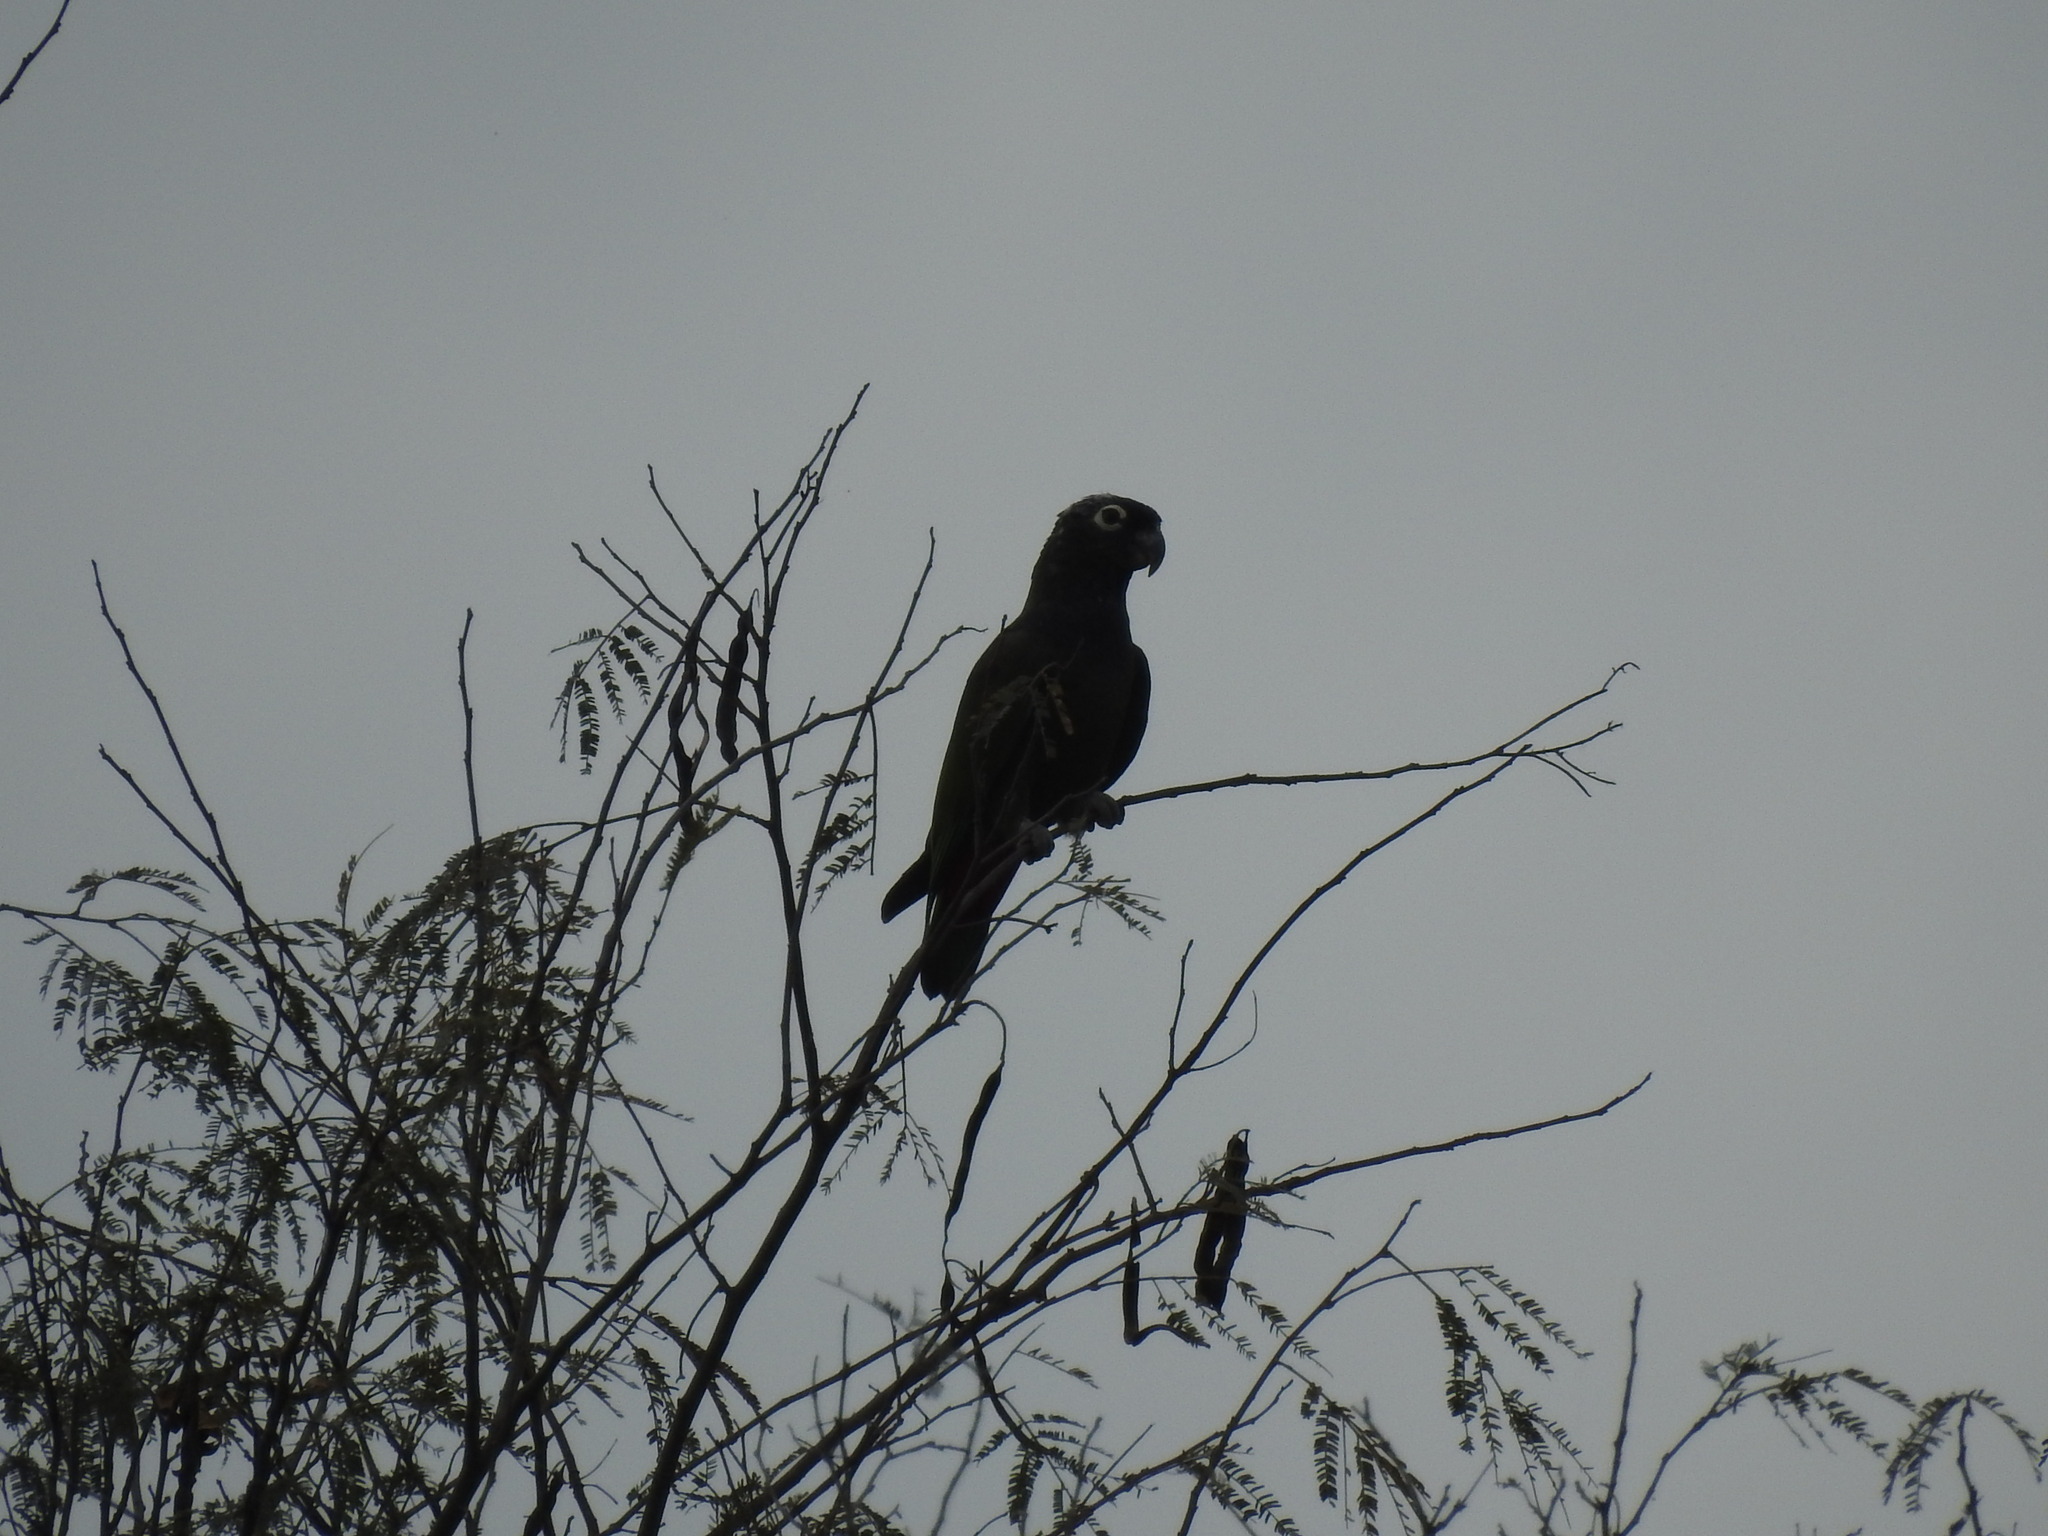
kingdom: Animalia
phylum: Chordata
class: Aves
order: Psittaciformes
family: Psittacidae
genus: Pionus
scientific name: Pionus maximiliani
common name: Scaly-headed parrot
